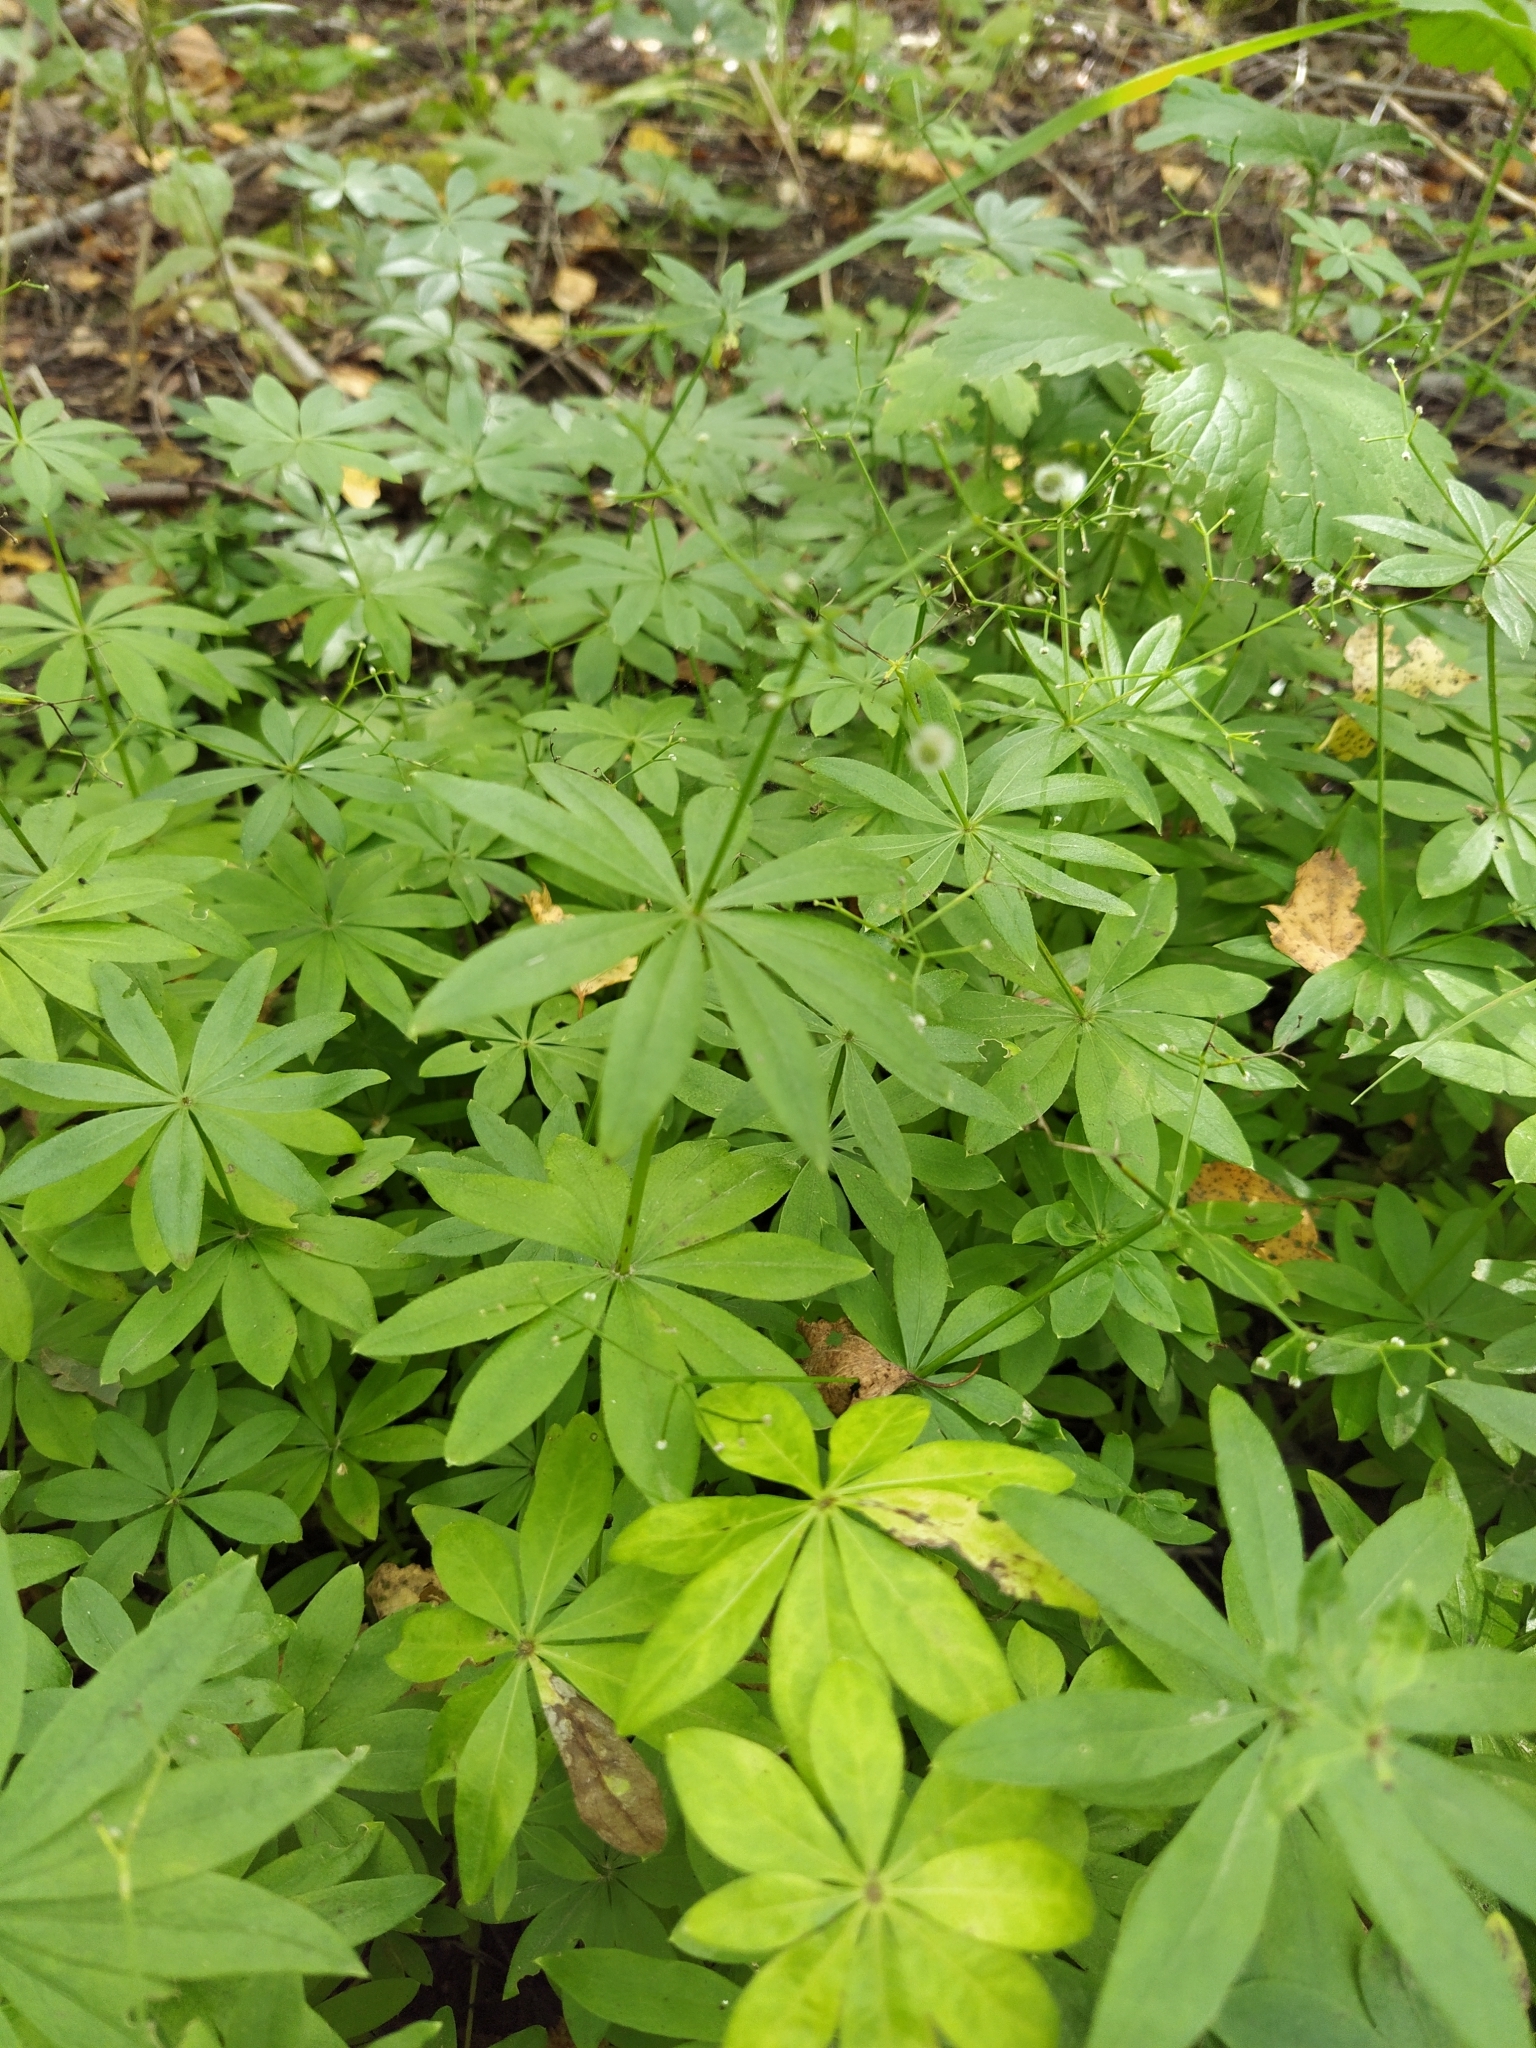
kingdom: Plantae
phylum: Tracheophyta
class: Magnoliopsida
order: Gentianales
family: Rubiaceae
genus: Galium
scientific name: Galium odoratum
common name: Sweet woodruff
